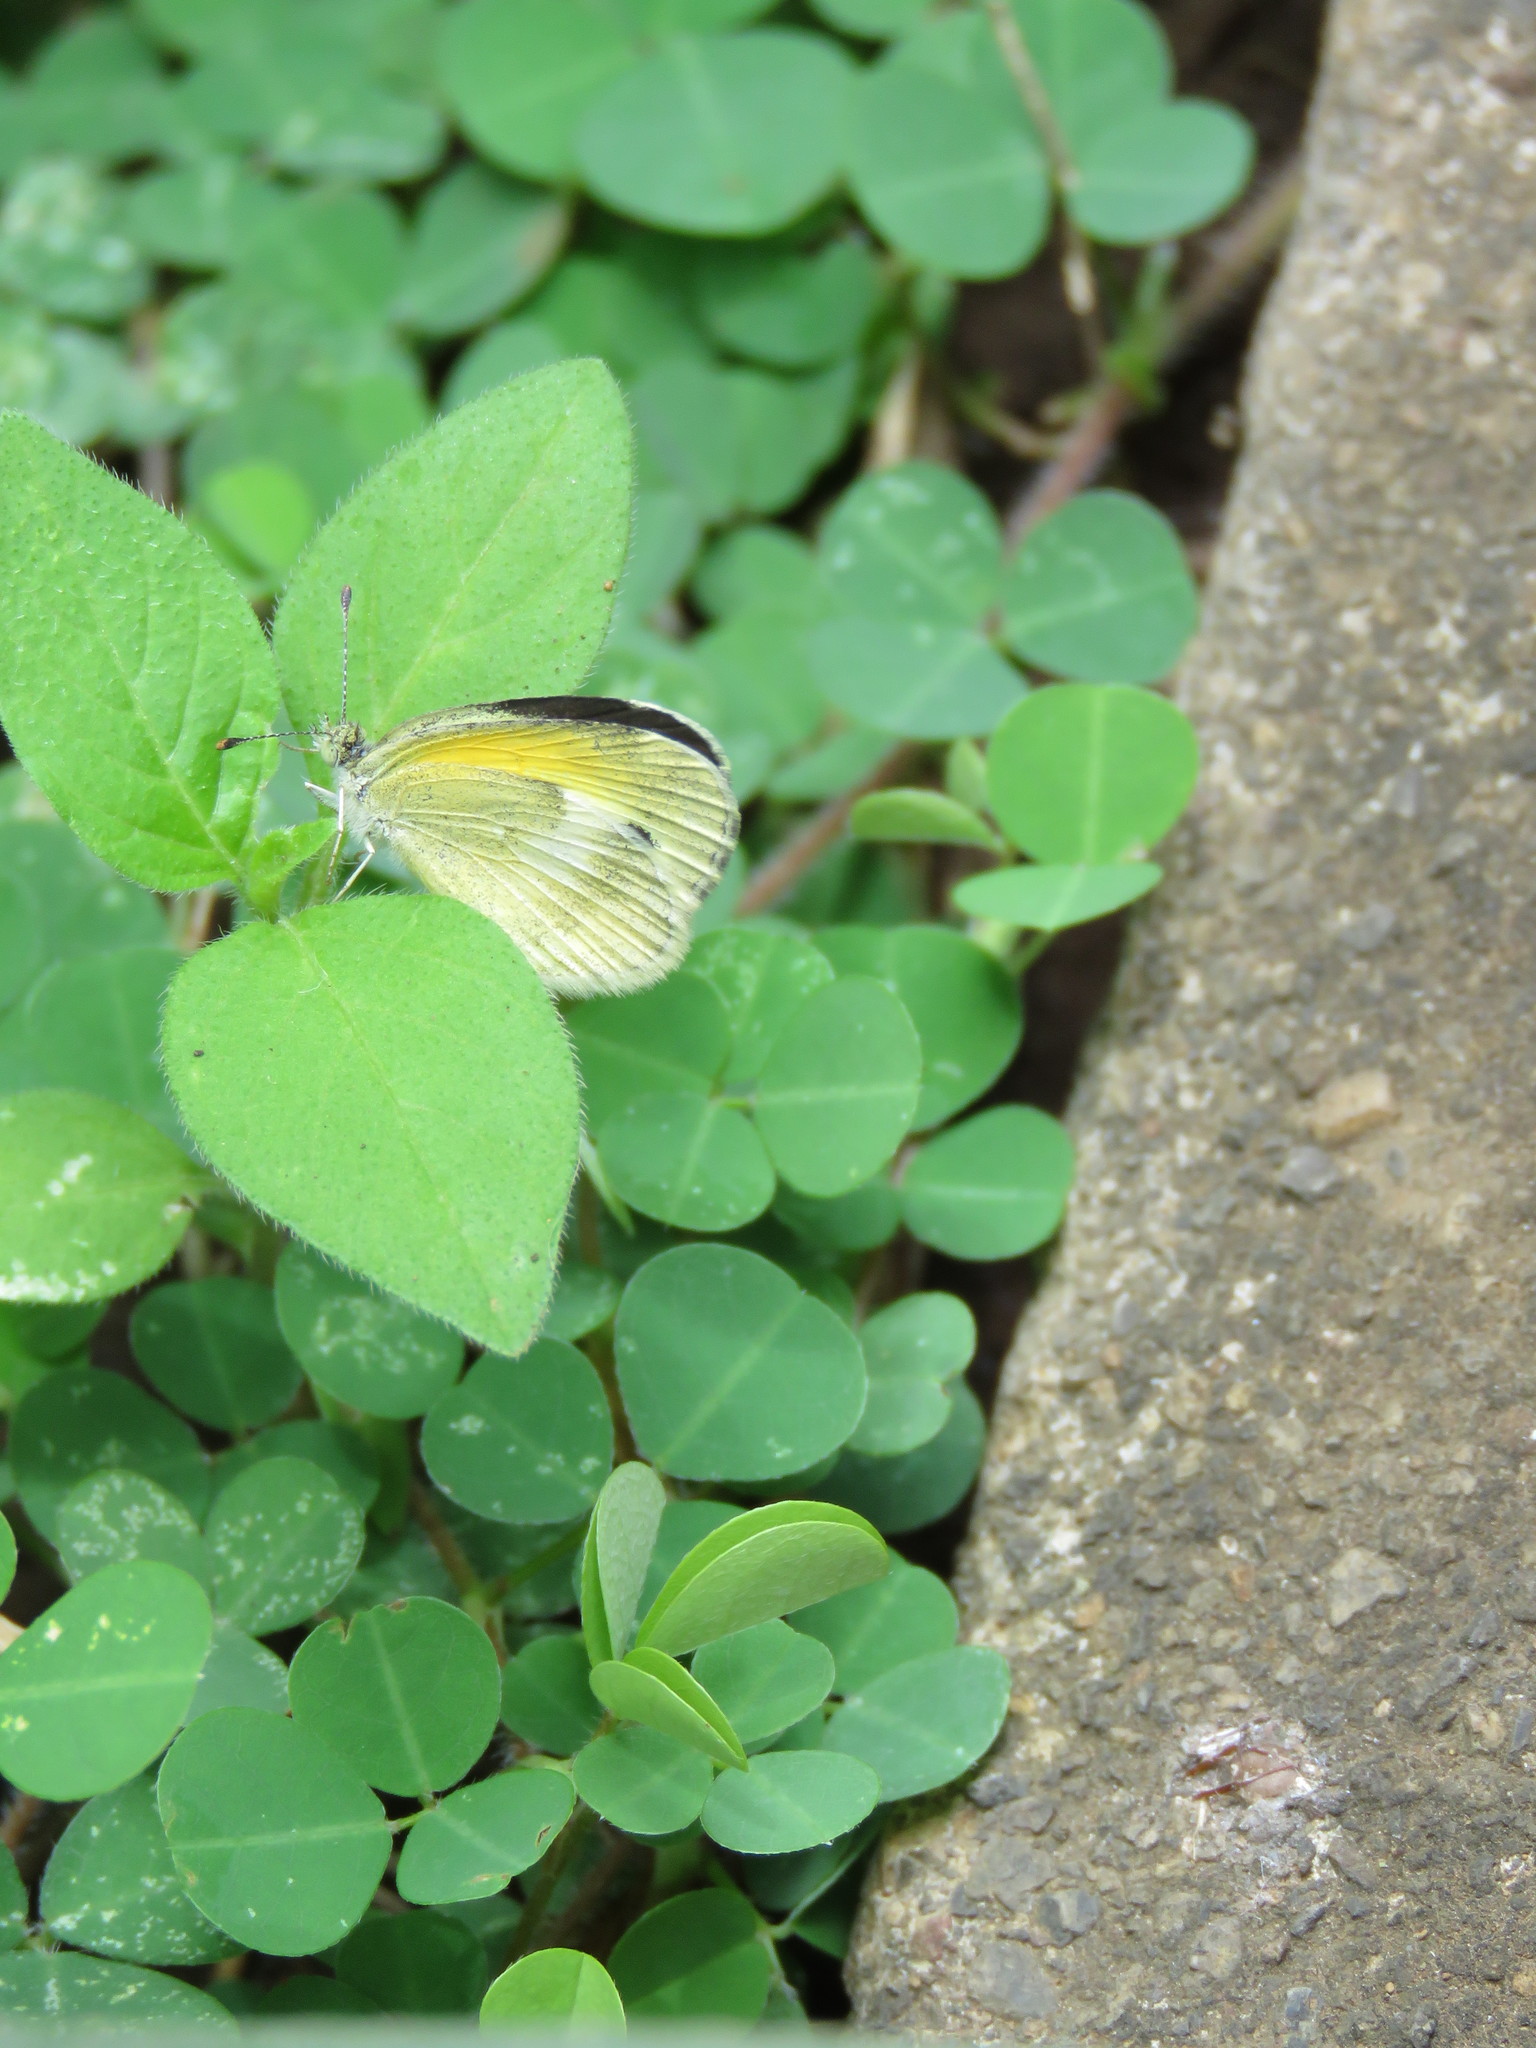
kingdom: Animalia
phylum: Arthropoda
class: Insecta
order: Lepidoptera
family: Pieridae
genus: Nathalis
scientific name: Nathalis iole
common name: Dainty sulphur
